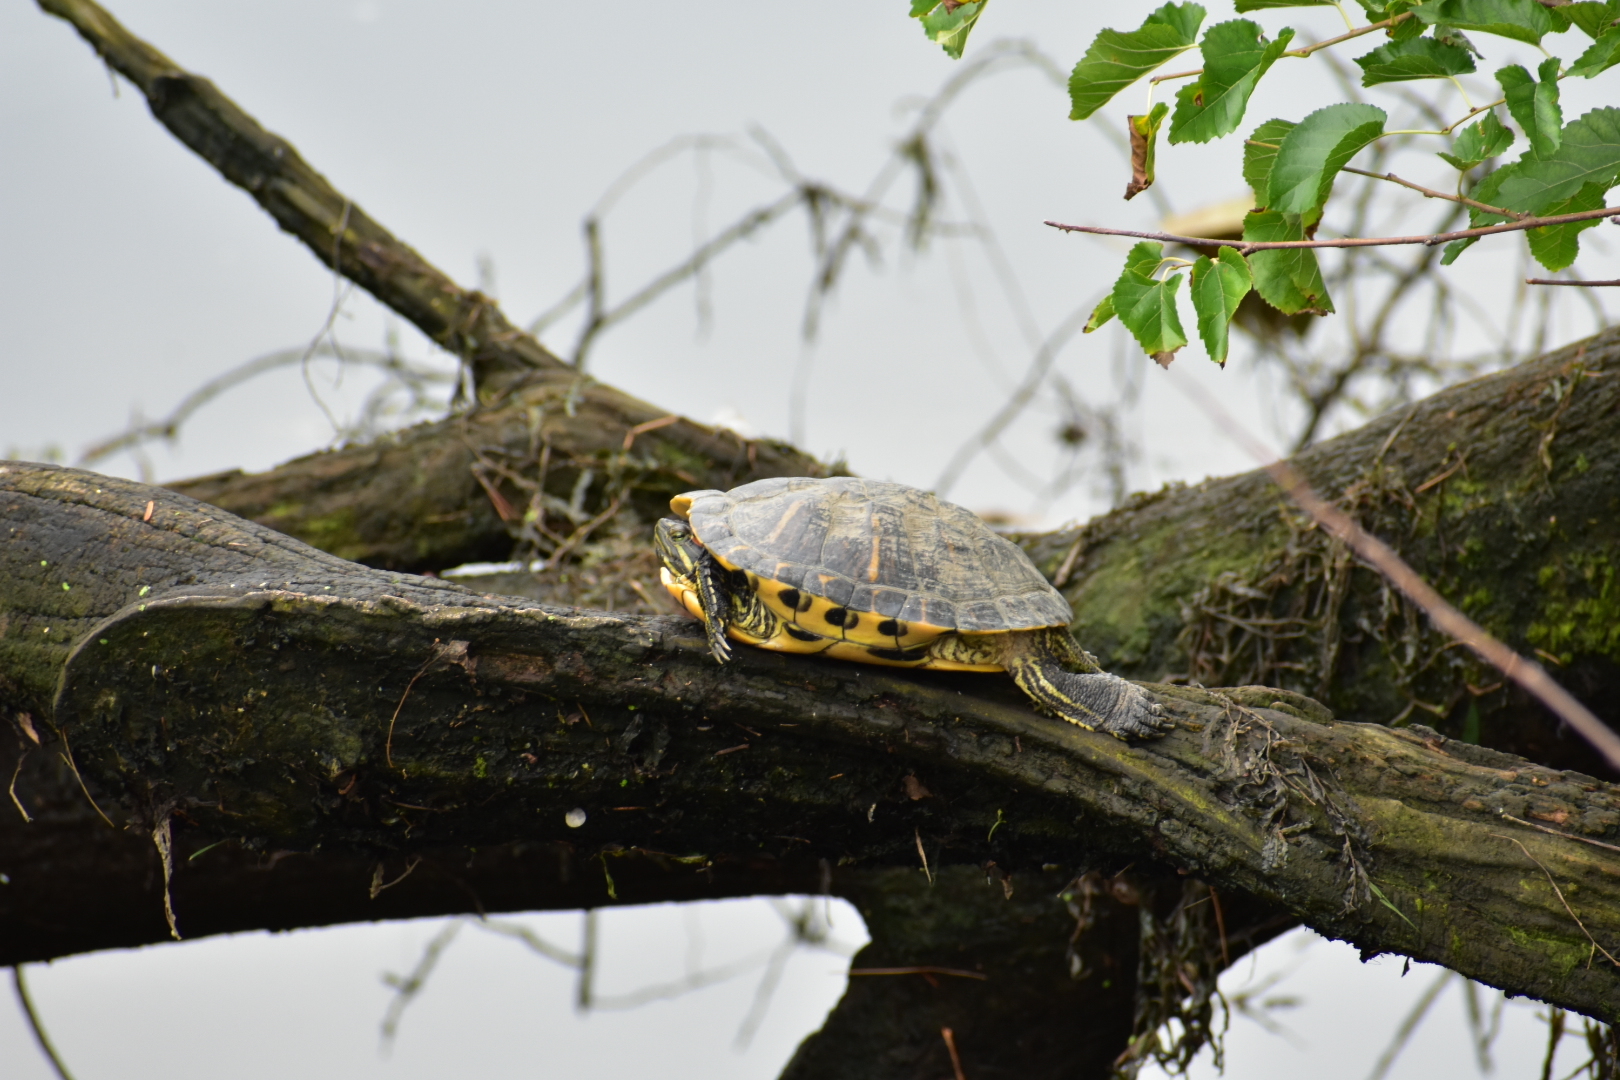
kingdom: Animalia
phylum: Chordata
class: Testudines
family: Emydidae
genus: Trachemys
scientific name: Trachemys scripta
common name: Slider
